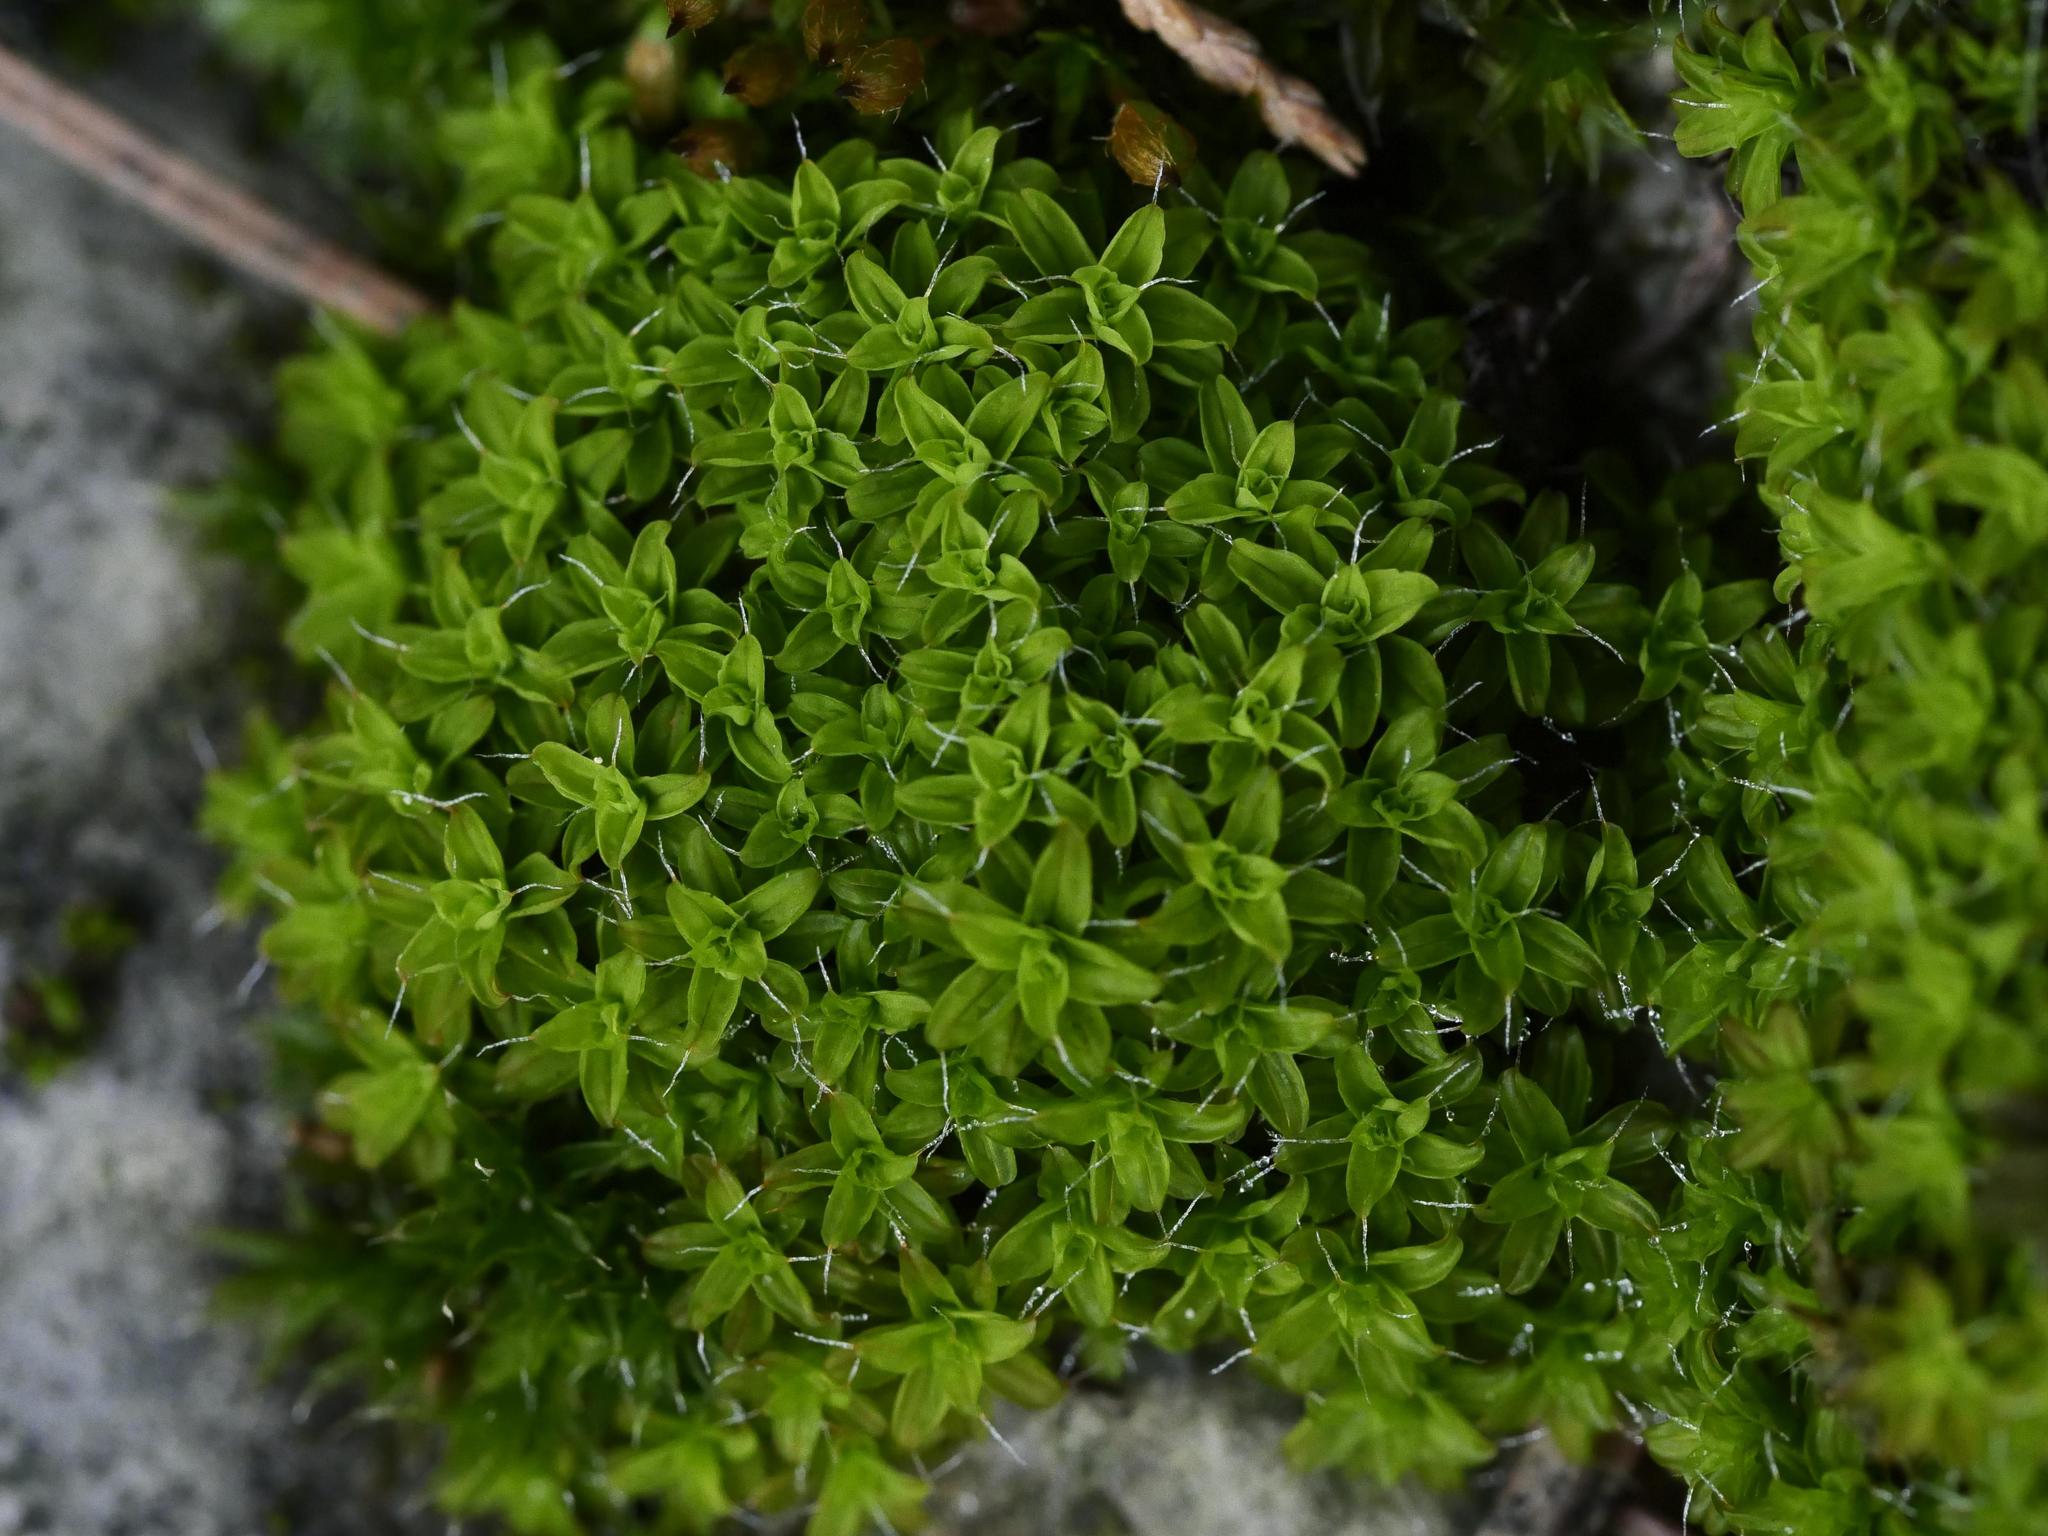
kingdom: Plantae
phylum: Bryophyta
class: Bryopsida
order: Pottiales
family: Pottiaceae
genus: Syntrichia
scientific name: Syntrichia ruralis
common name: Sidewalk screw moss
